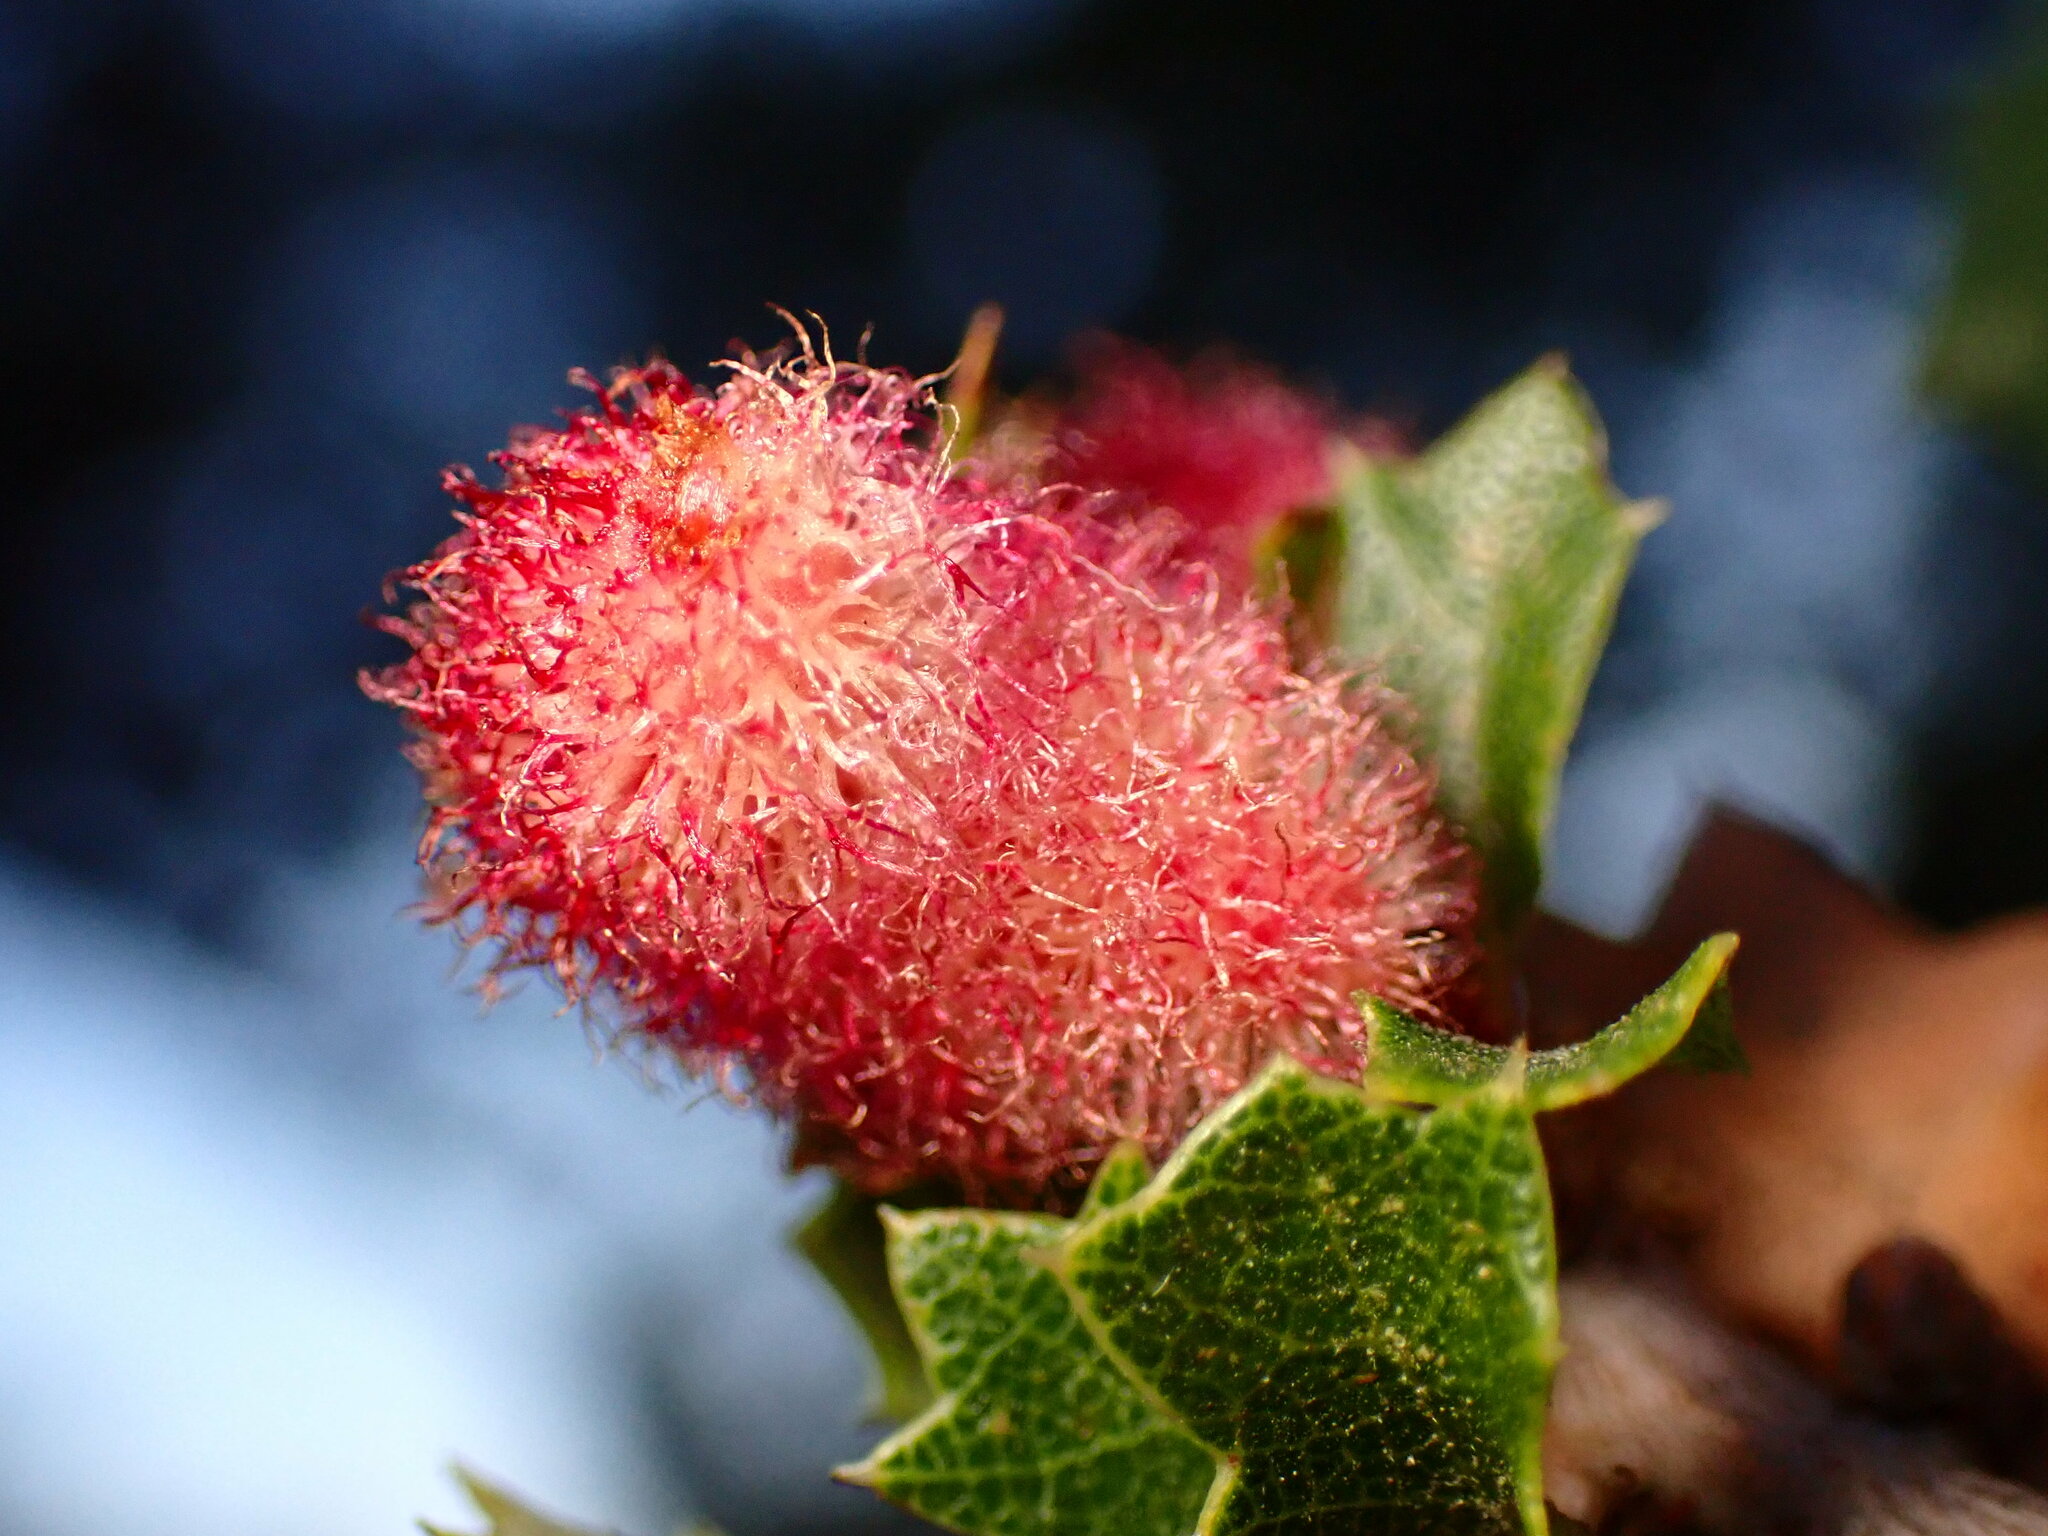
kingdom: Animalia
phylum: Arthropoda
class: Insecta
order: Hymenoptera
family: Cynipidae
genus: Andricus
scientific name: Andricus
